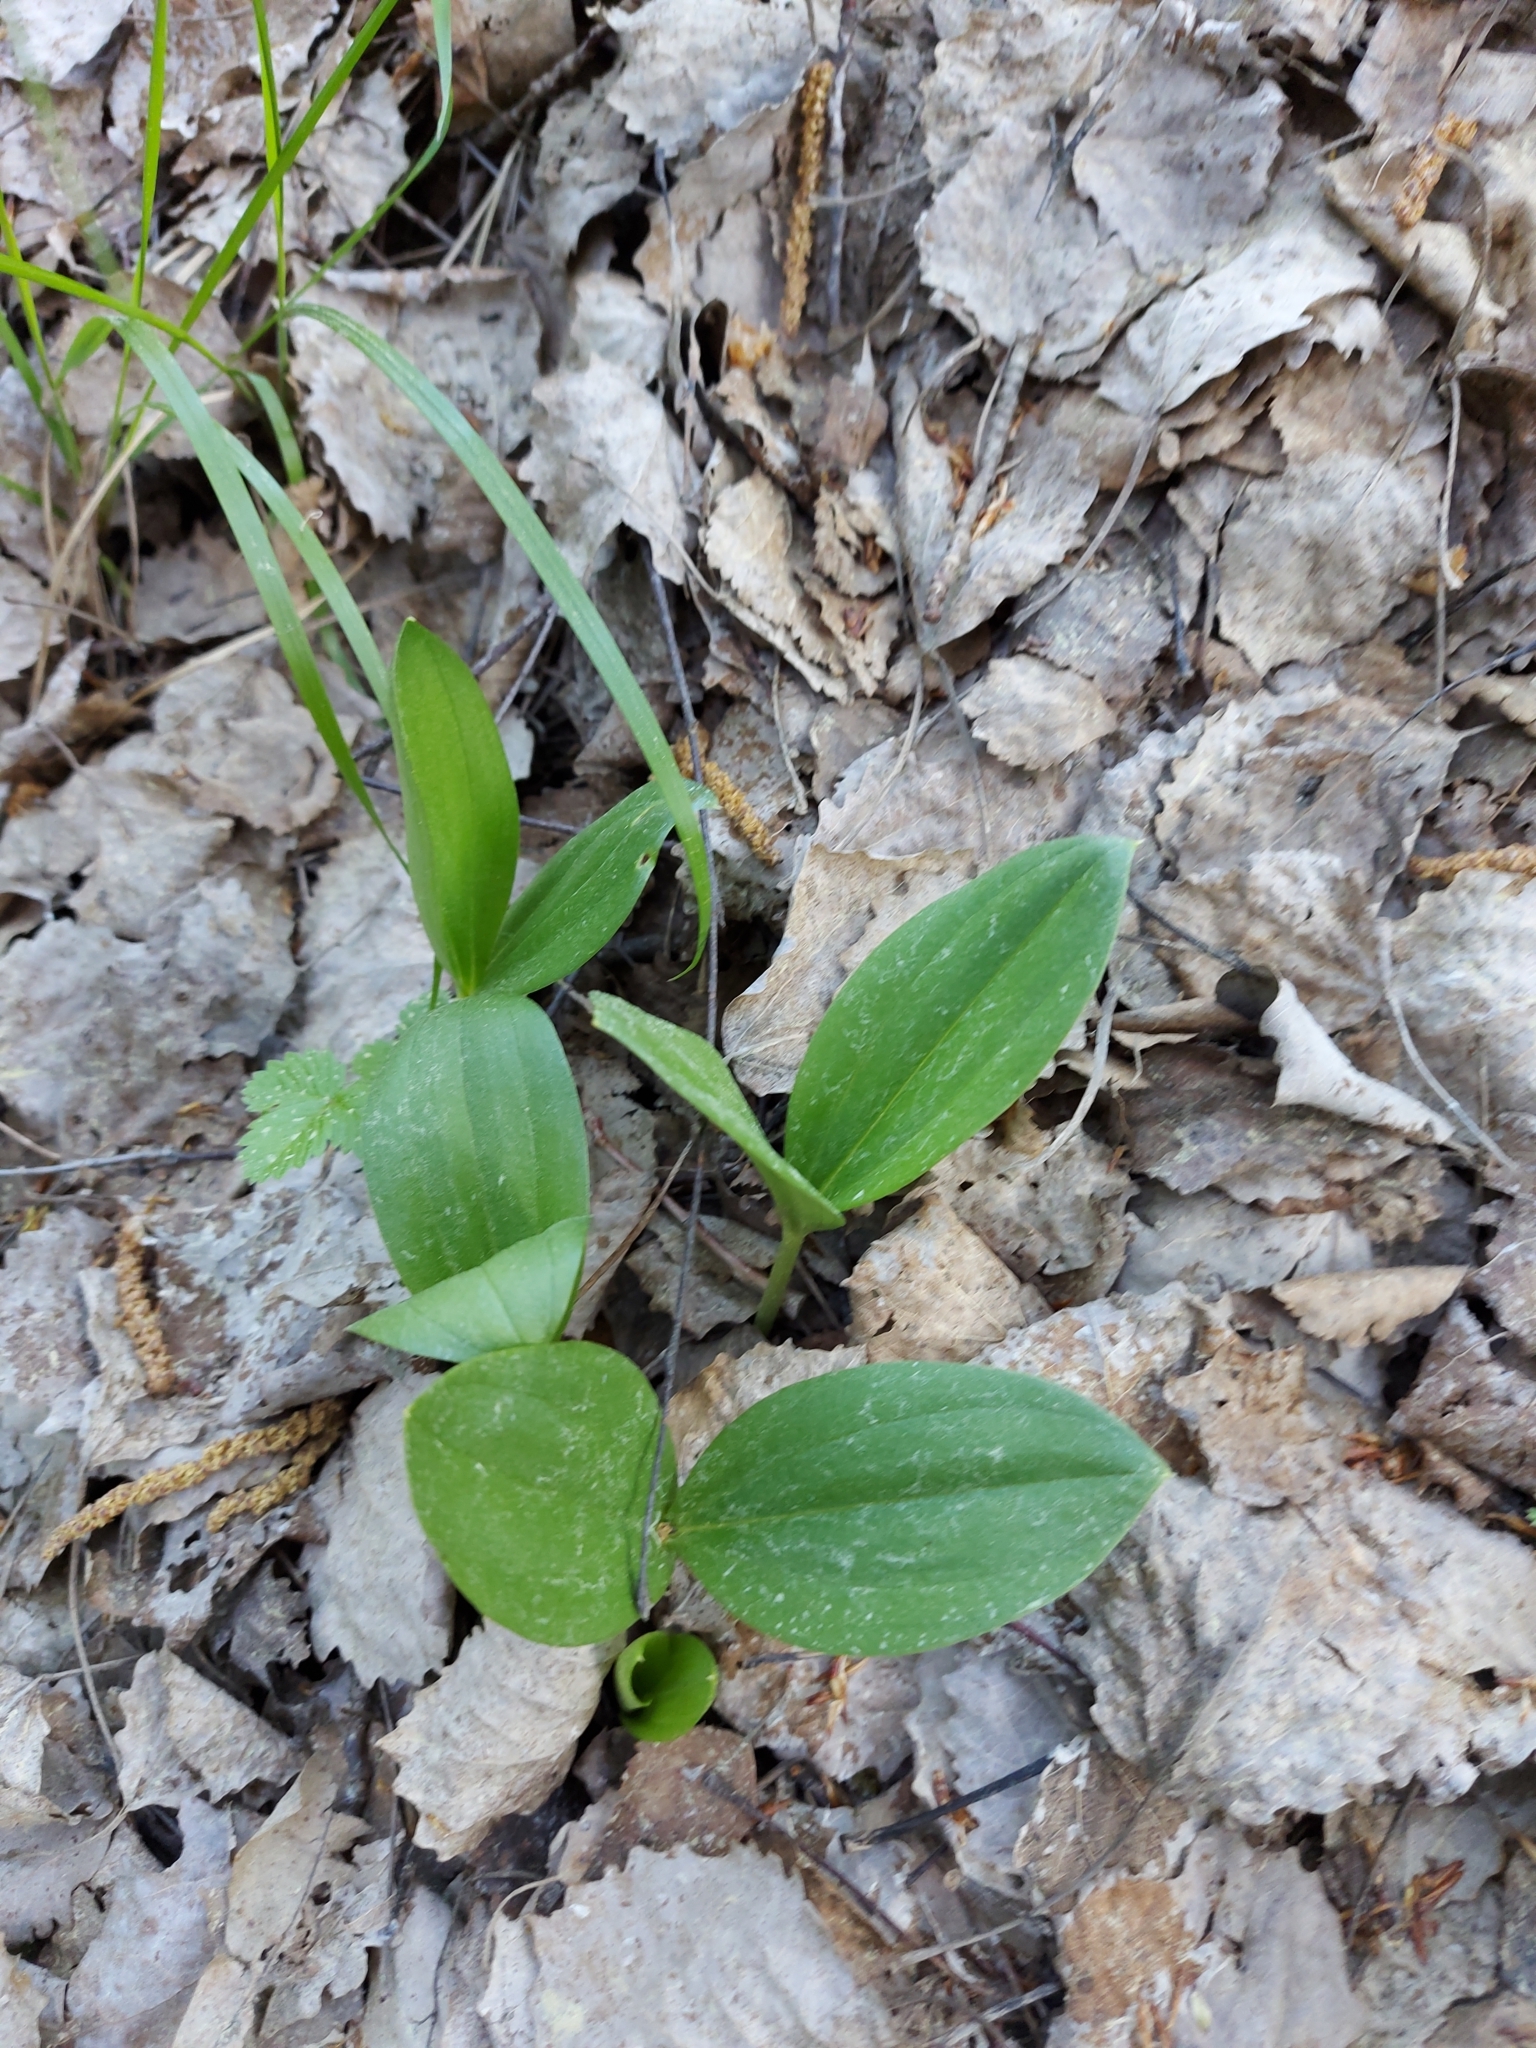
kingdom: Plantae
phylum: Tracheophyta
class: Liliopsida
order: Asparagales
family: Orchidaceae
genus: Neottia
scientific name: Neottia ovata
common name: Common twayblade
